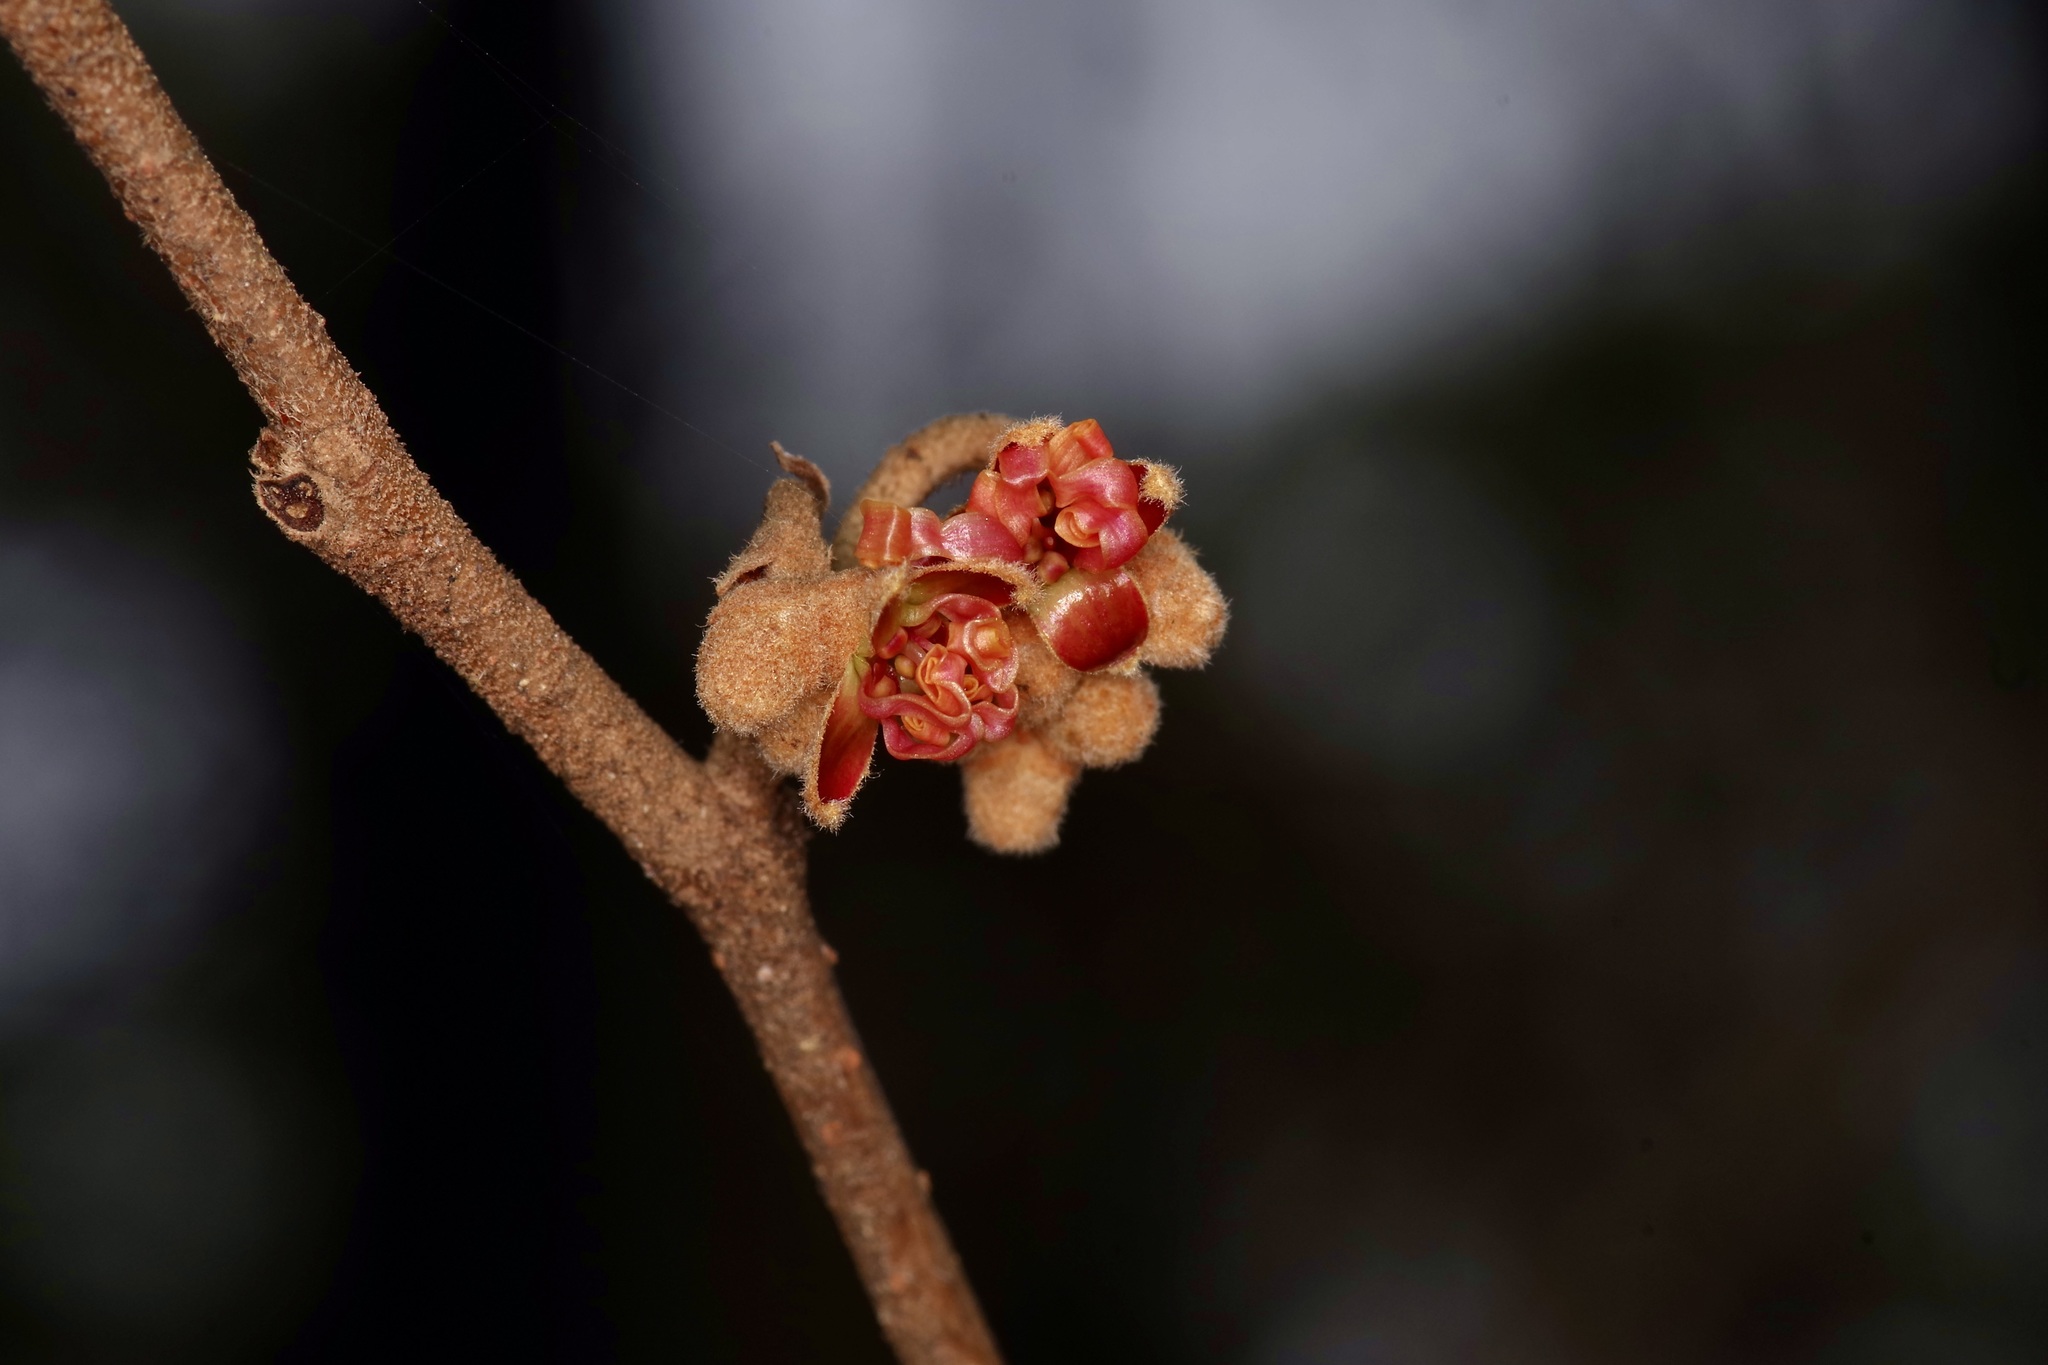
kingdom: Plantae
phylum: Tracheophyta
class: Magnoliopsida
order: Saxifragales
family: Hamamelidaceae
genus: Hamamelis
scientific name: Hamamelis ovalis
